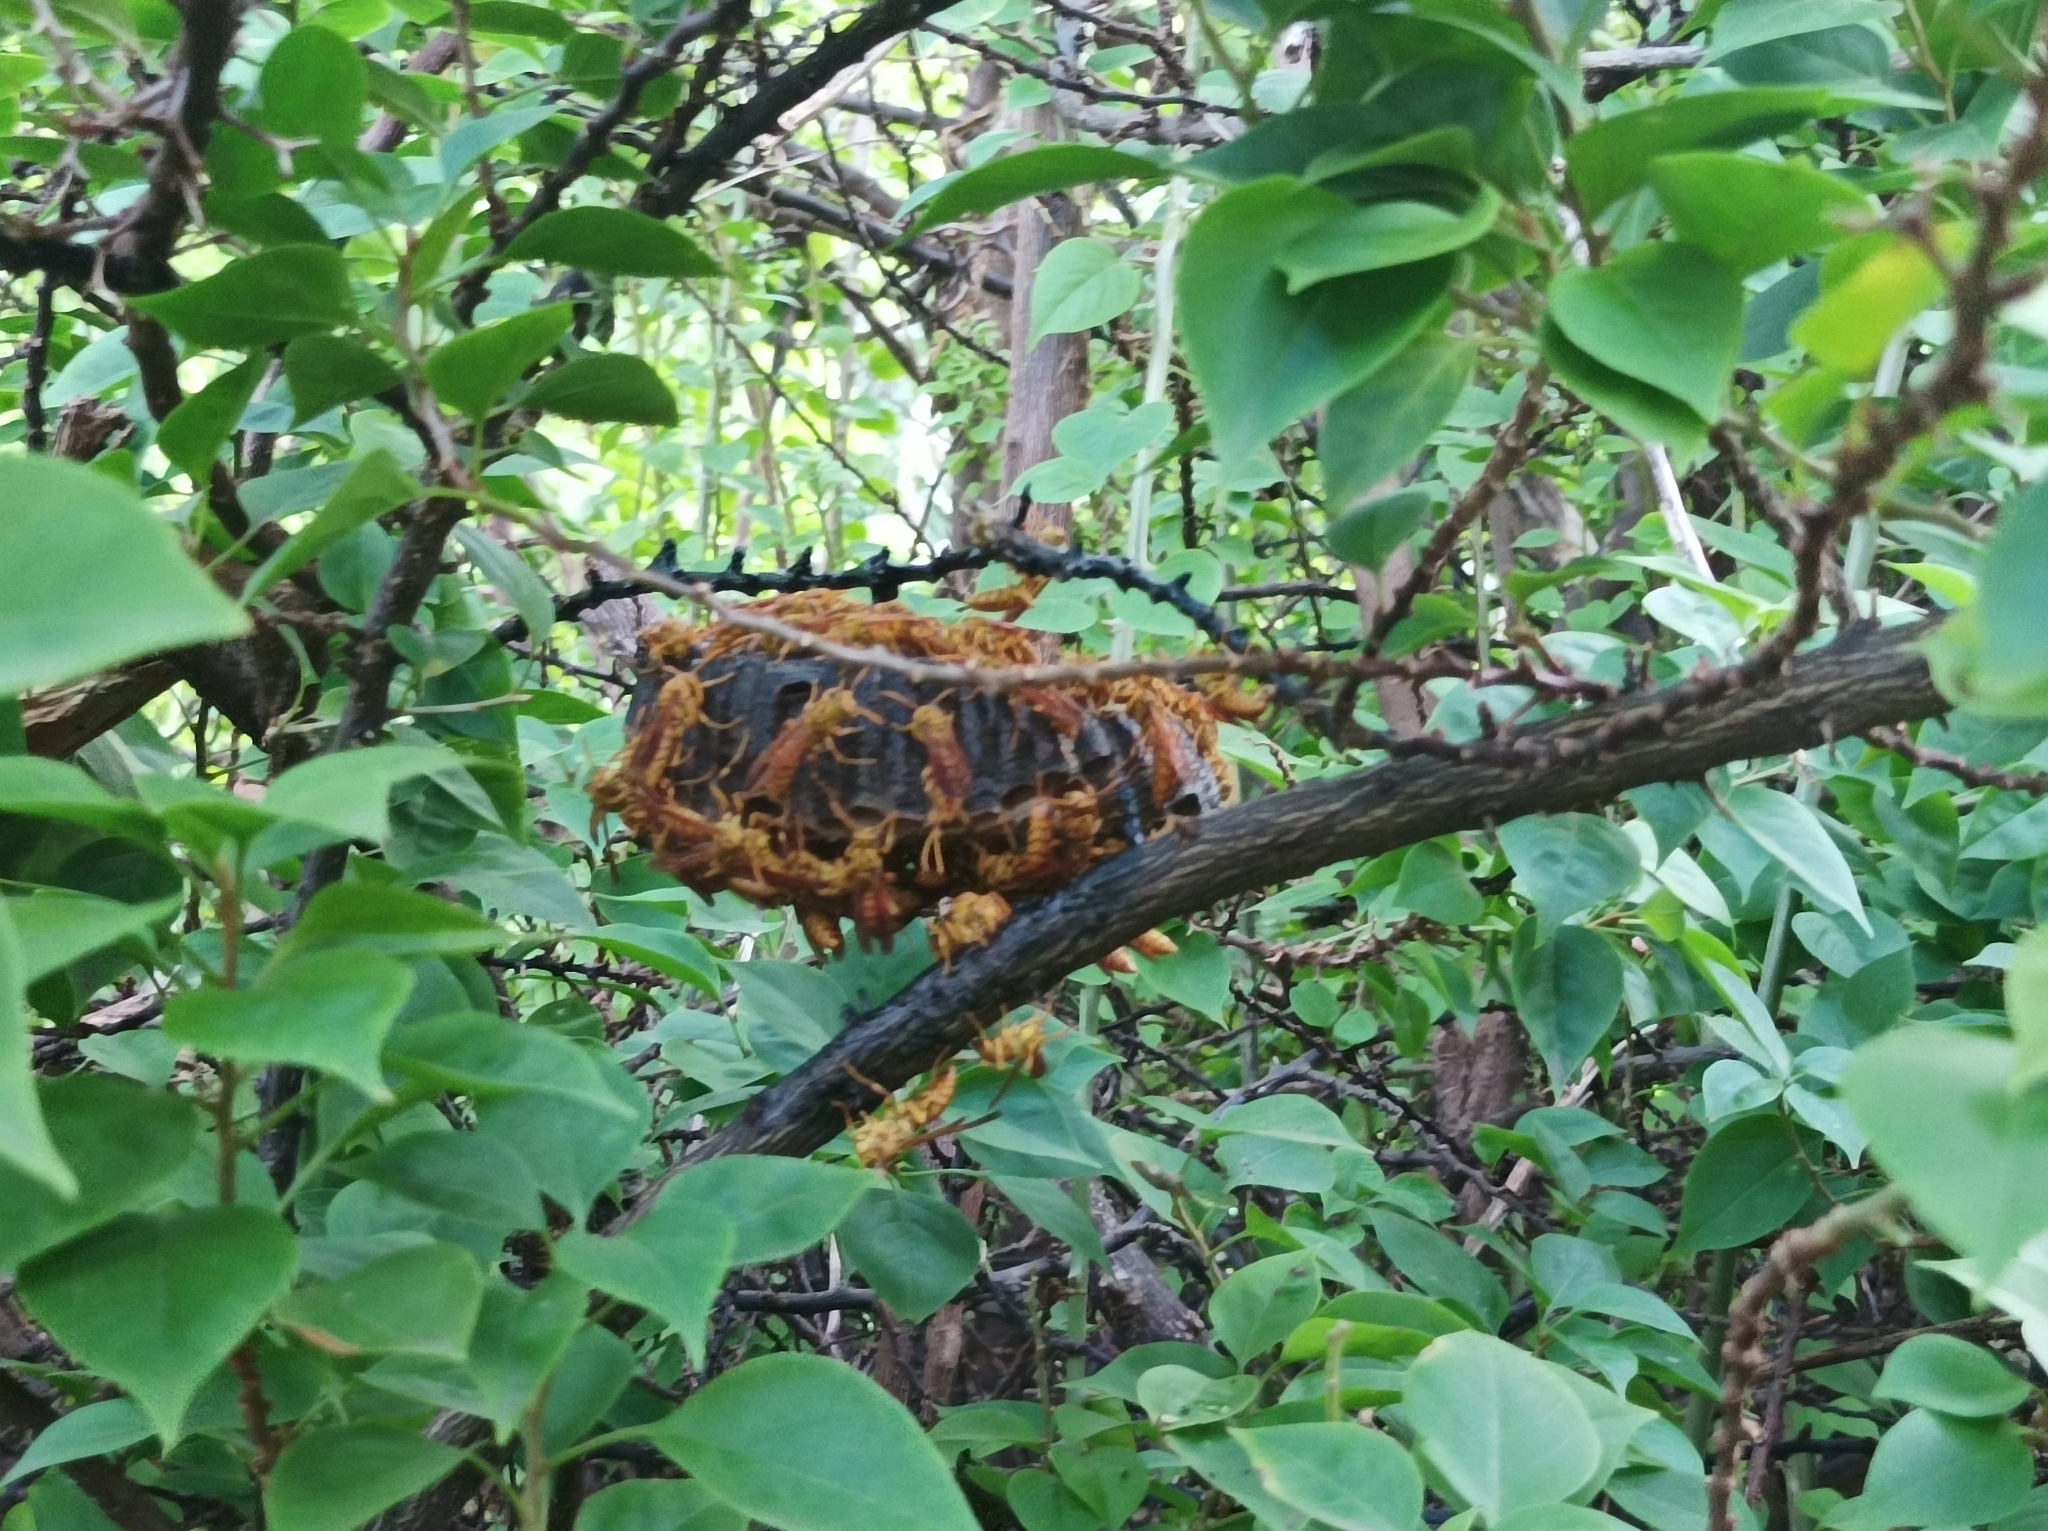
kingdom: Animalia
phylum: Arthropoda
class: Insecta
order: Hymenoptera
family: Eumenidae
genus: Polistes
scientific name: Polistes olivaceus
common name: Paper wasp
